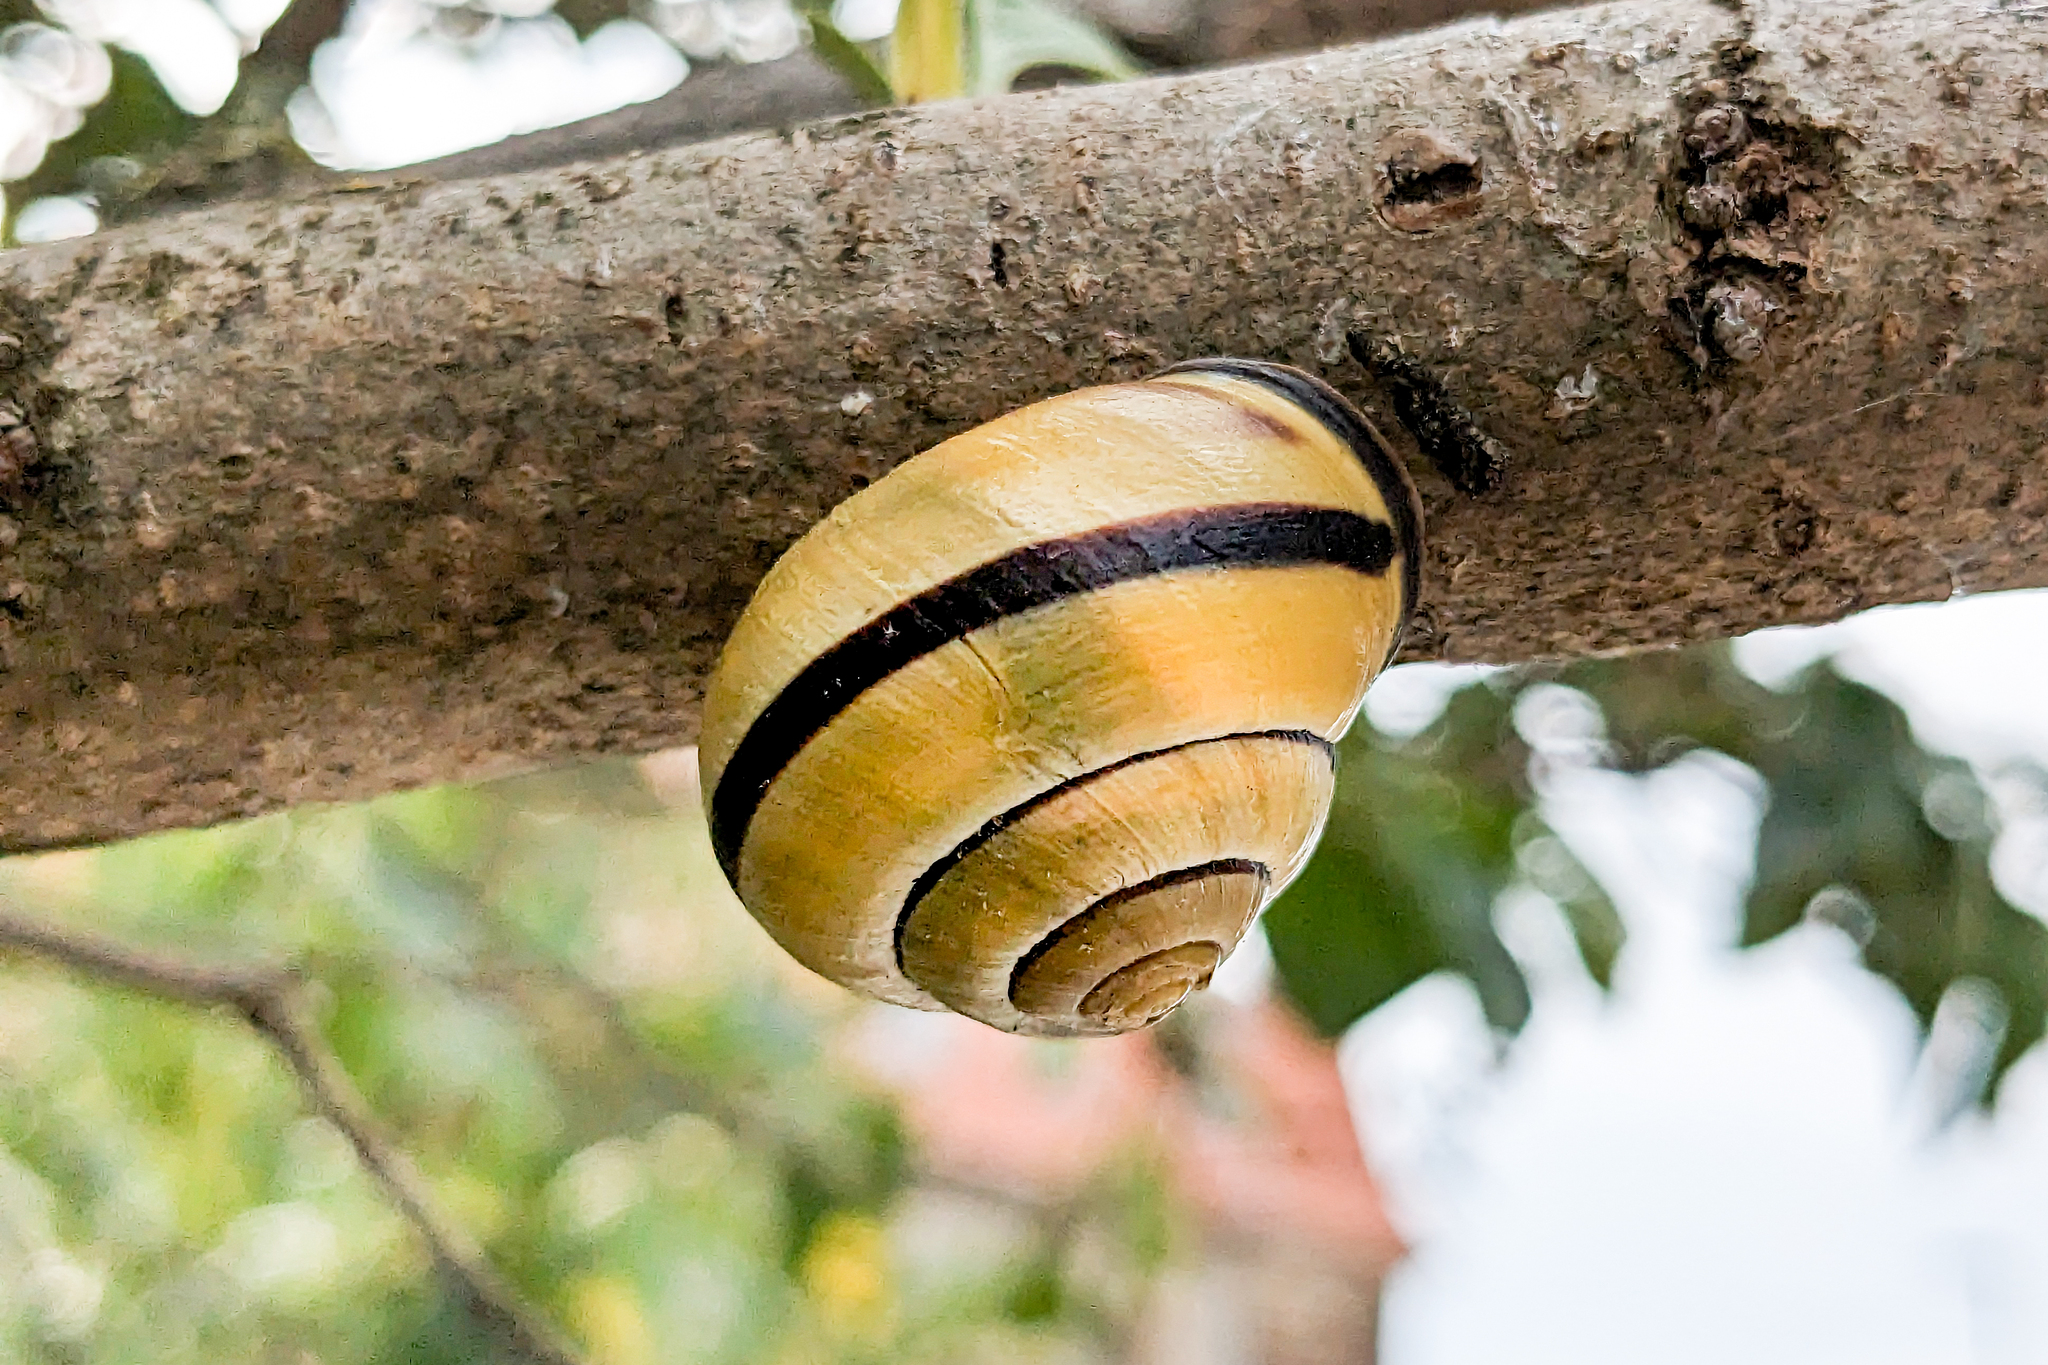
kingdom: Animalia
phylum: Mollusca
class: Gastropoda
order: Stylommatophora
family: Helicidae
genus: Cepaea
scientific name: Cepaea nemoralis
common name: Grovesnail
